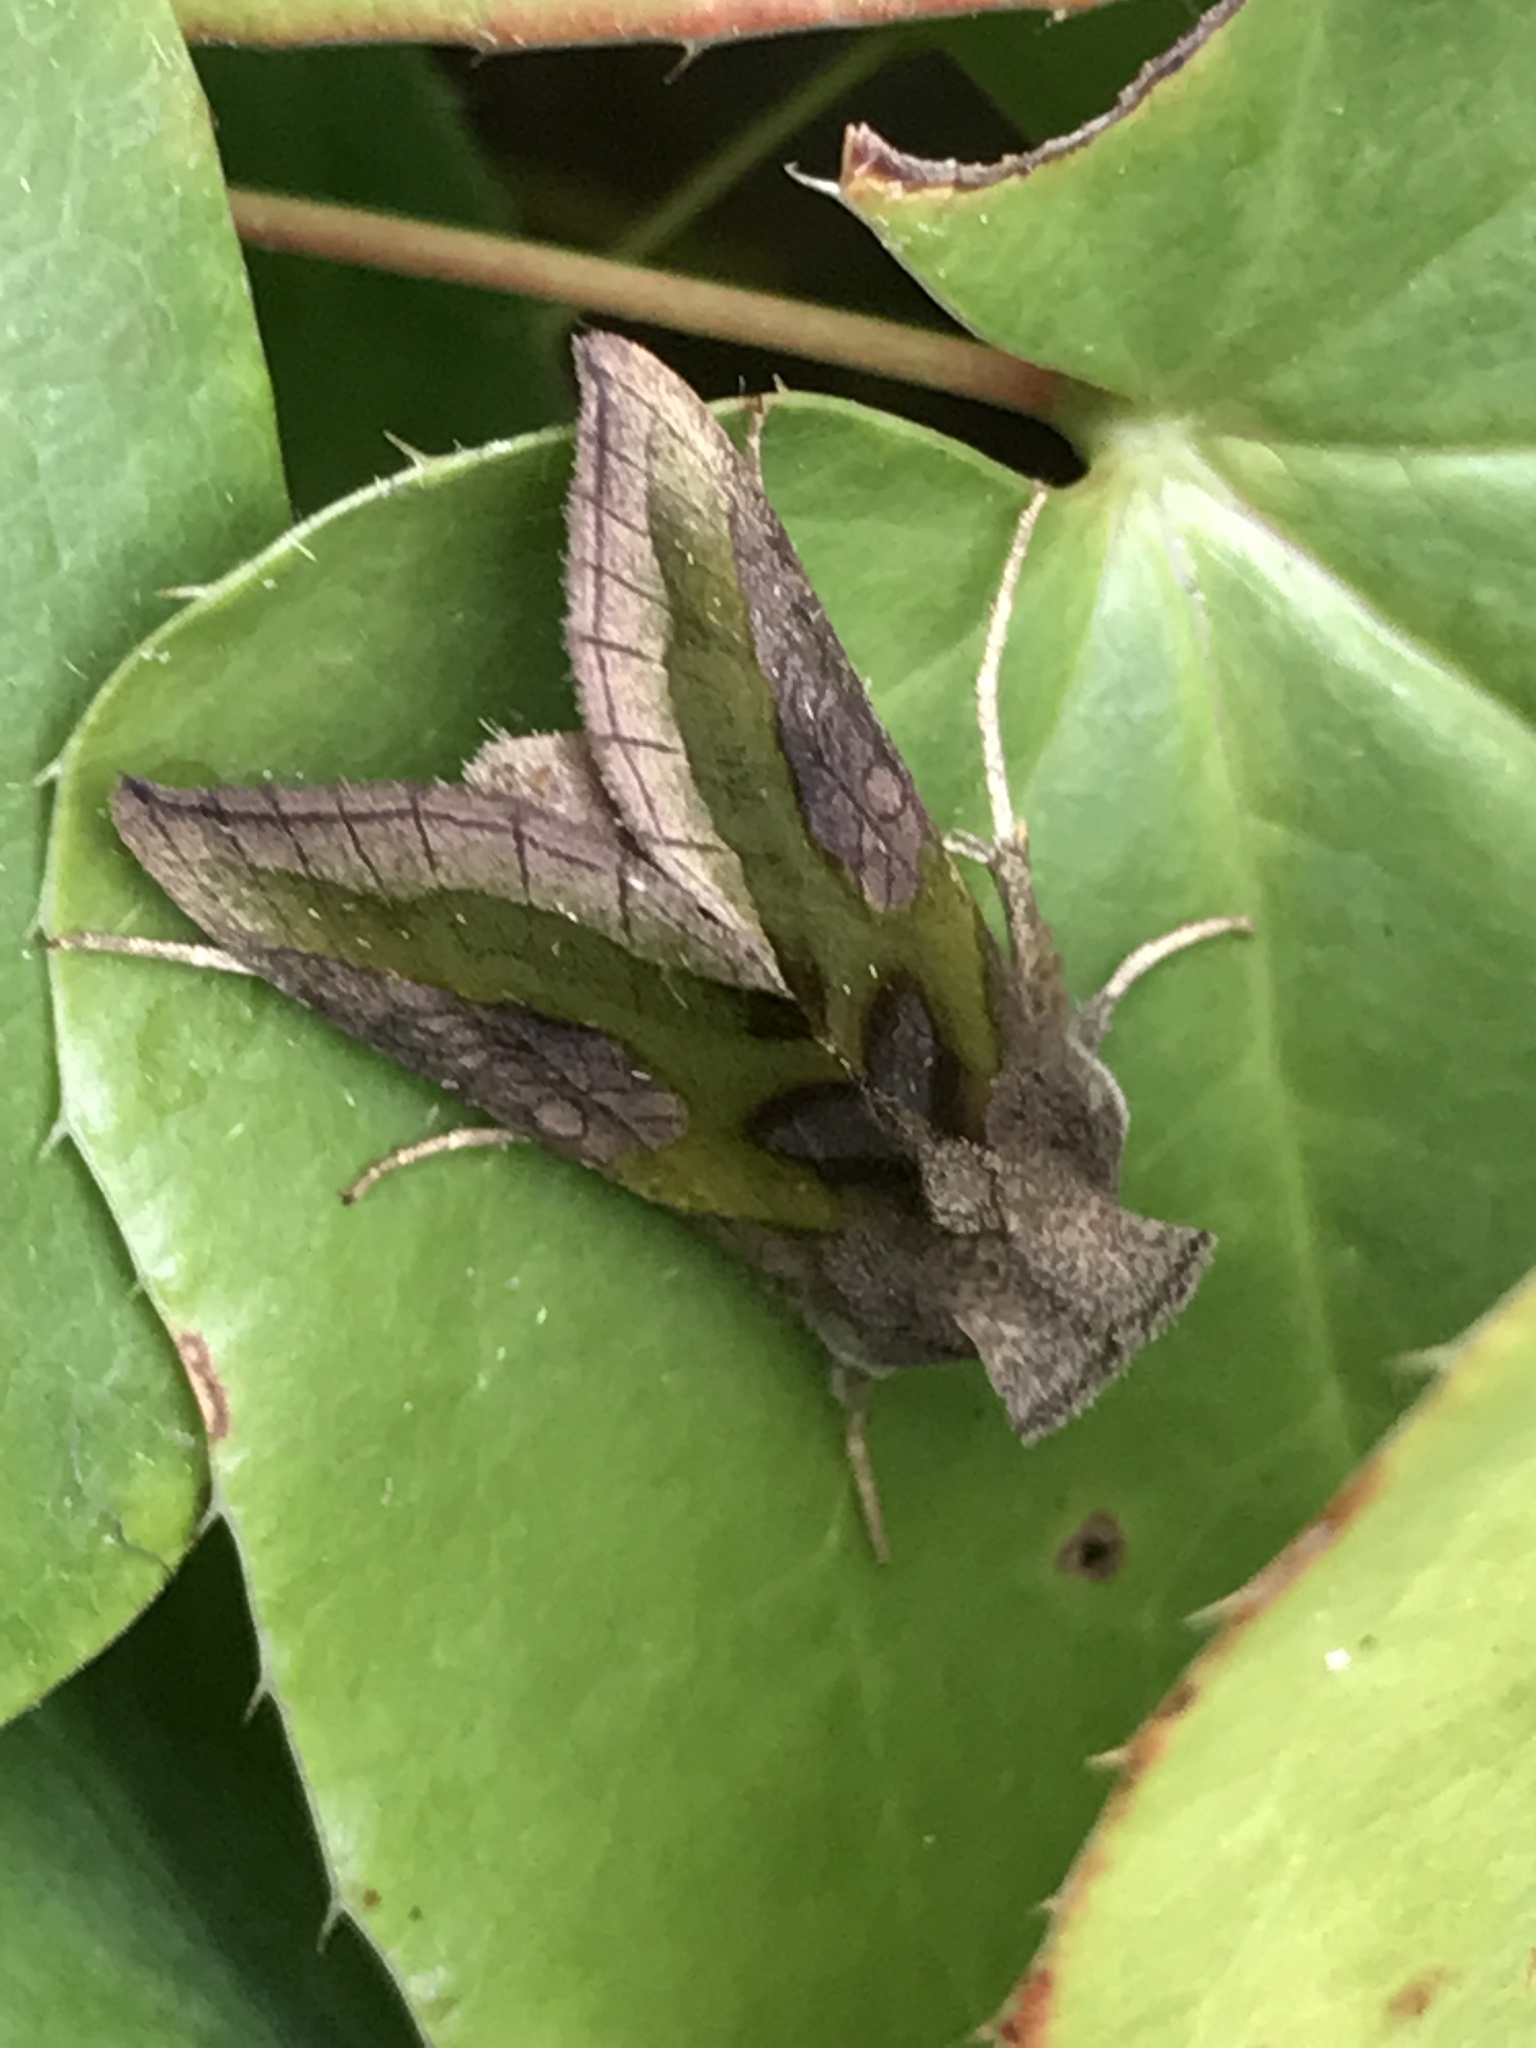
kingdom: Animalia
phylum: Arthropoda
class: Insecta
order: Lepidoptera
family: Noctuidae
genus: Diachrysia
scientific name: Diachrysia stenochrysis
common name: Cryptic burnished brass
